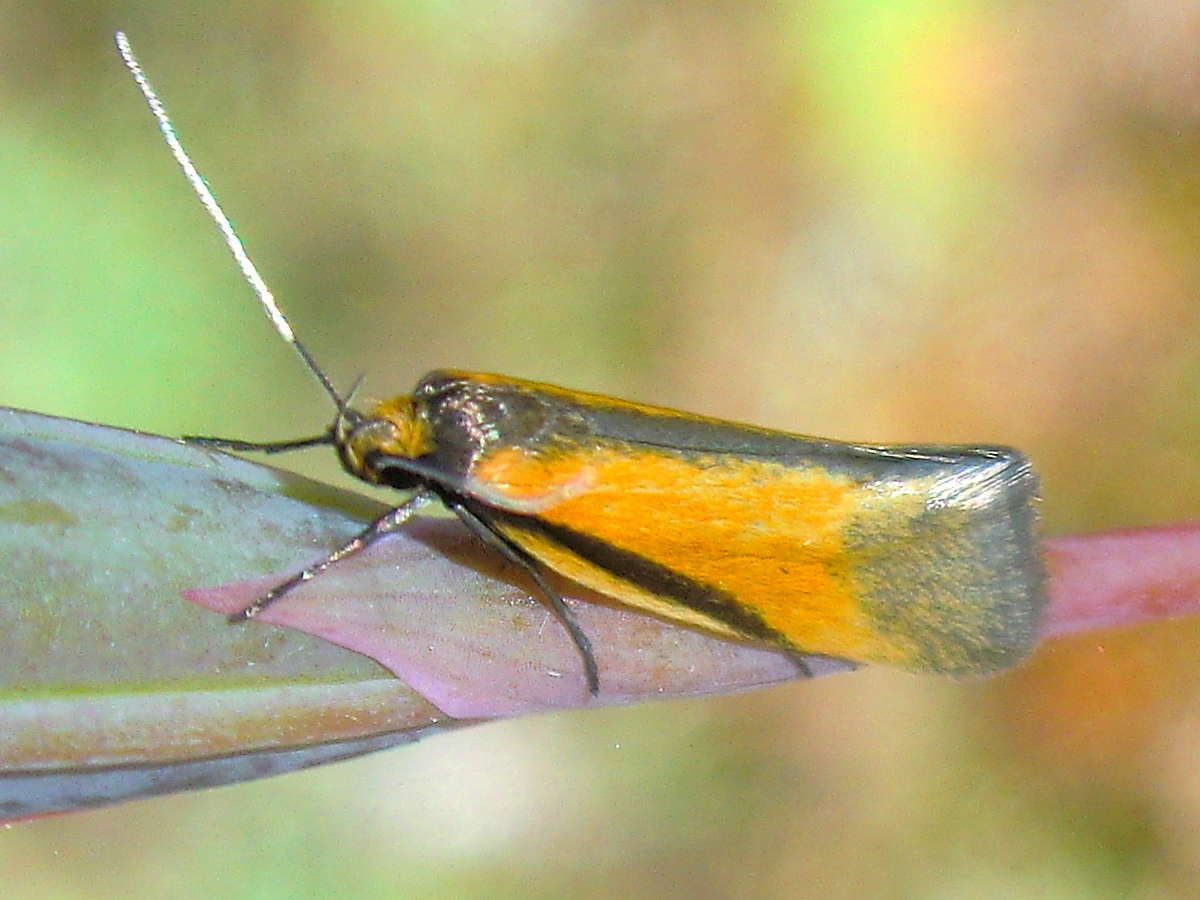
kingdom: Animalia
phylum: Arthropoda
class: Insecta
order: Lepidoptera
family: Oecophoridae
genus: Philobota
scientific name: Philobota arabella
